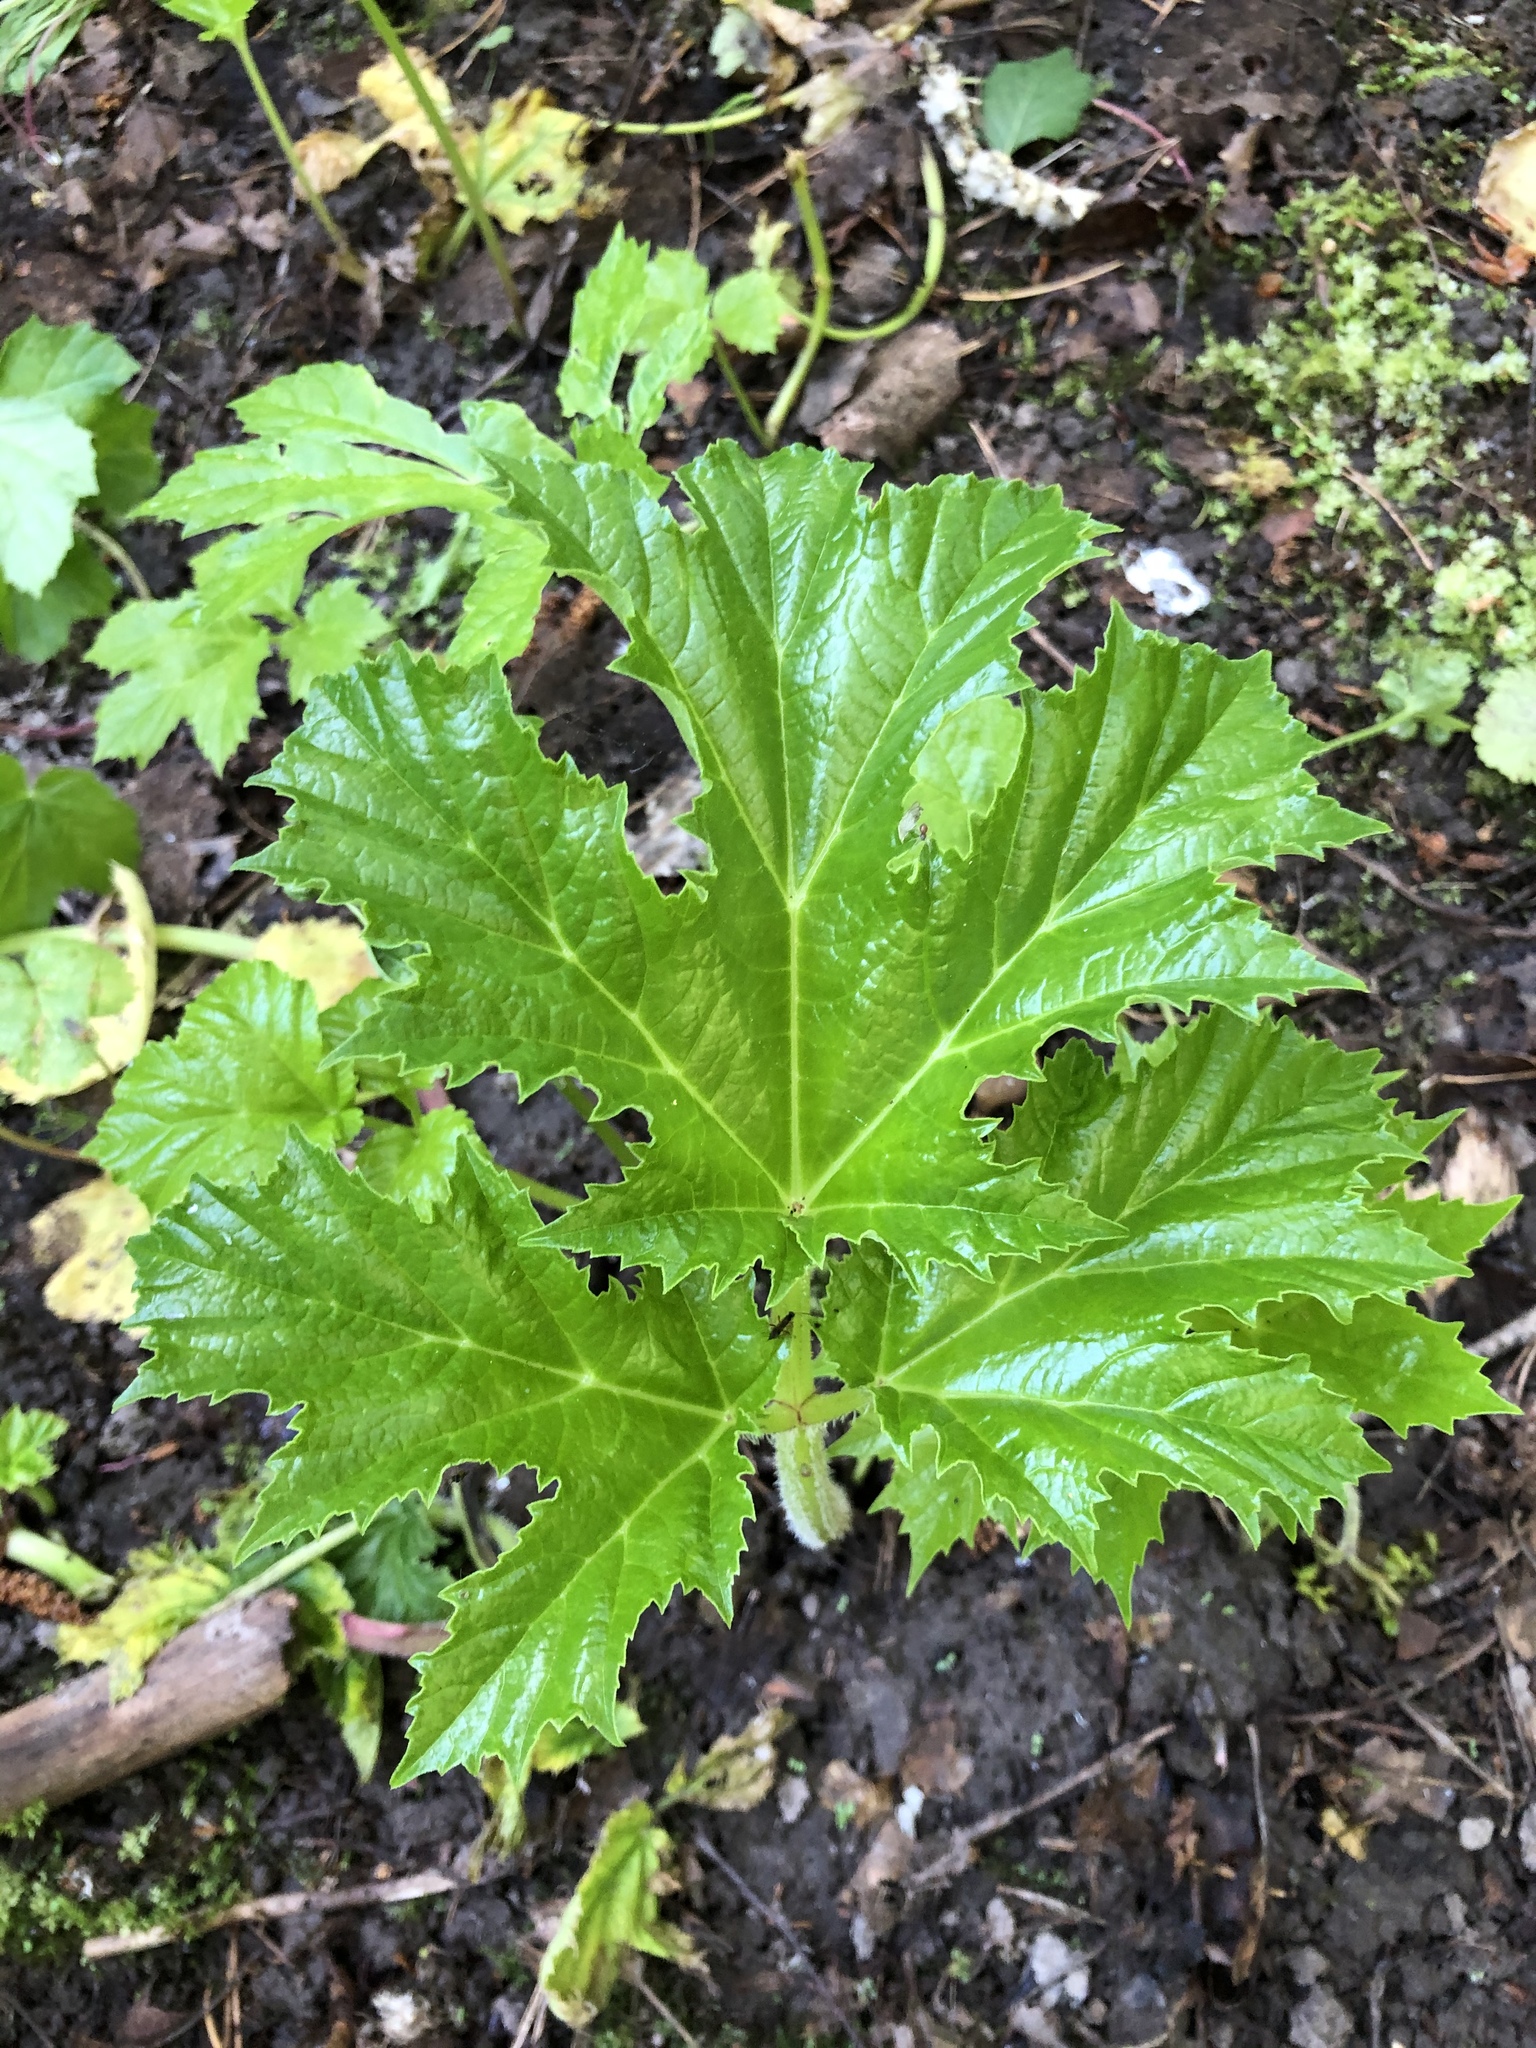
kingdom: Plantae
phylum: Tracheophyta
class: Magnoliopsida
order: Apiales
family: Apiaceae
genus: Heracleum
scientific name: Heracleum sosnowskyi
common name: Sosnowsky's hogweed
